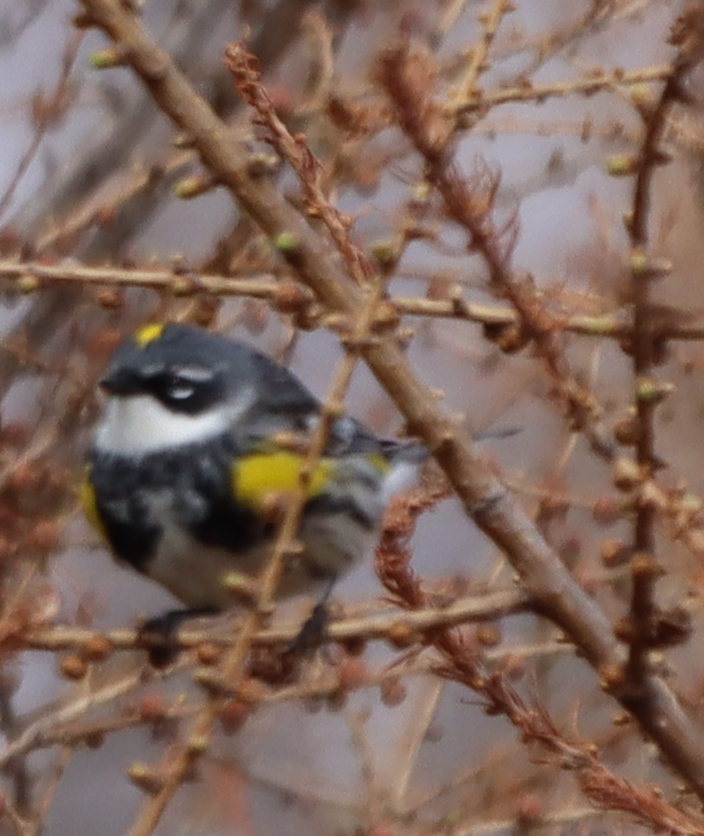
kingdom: Animalia
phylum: Chordata
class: Aves
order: Passeriformes
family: Parulidae
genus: Setophaga
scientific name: Setophaga coronata
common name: Myrtle warbler
